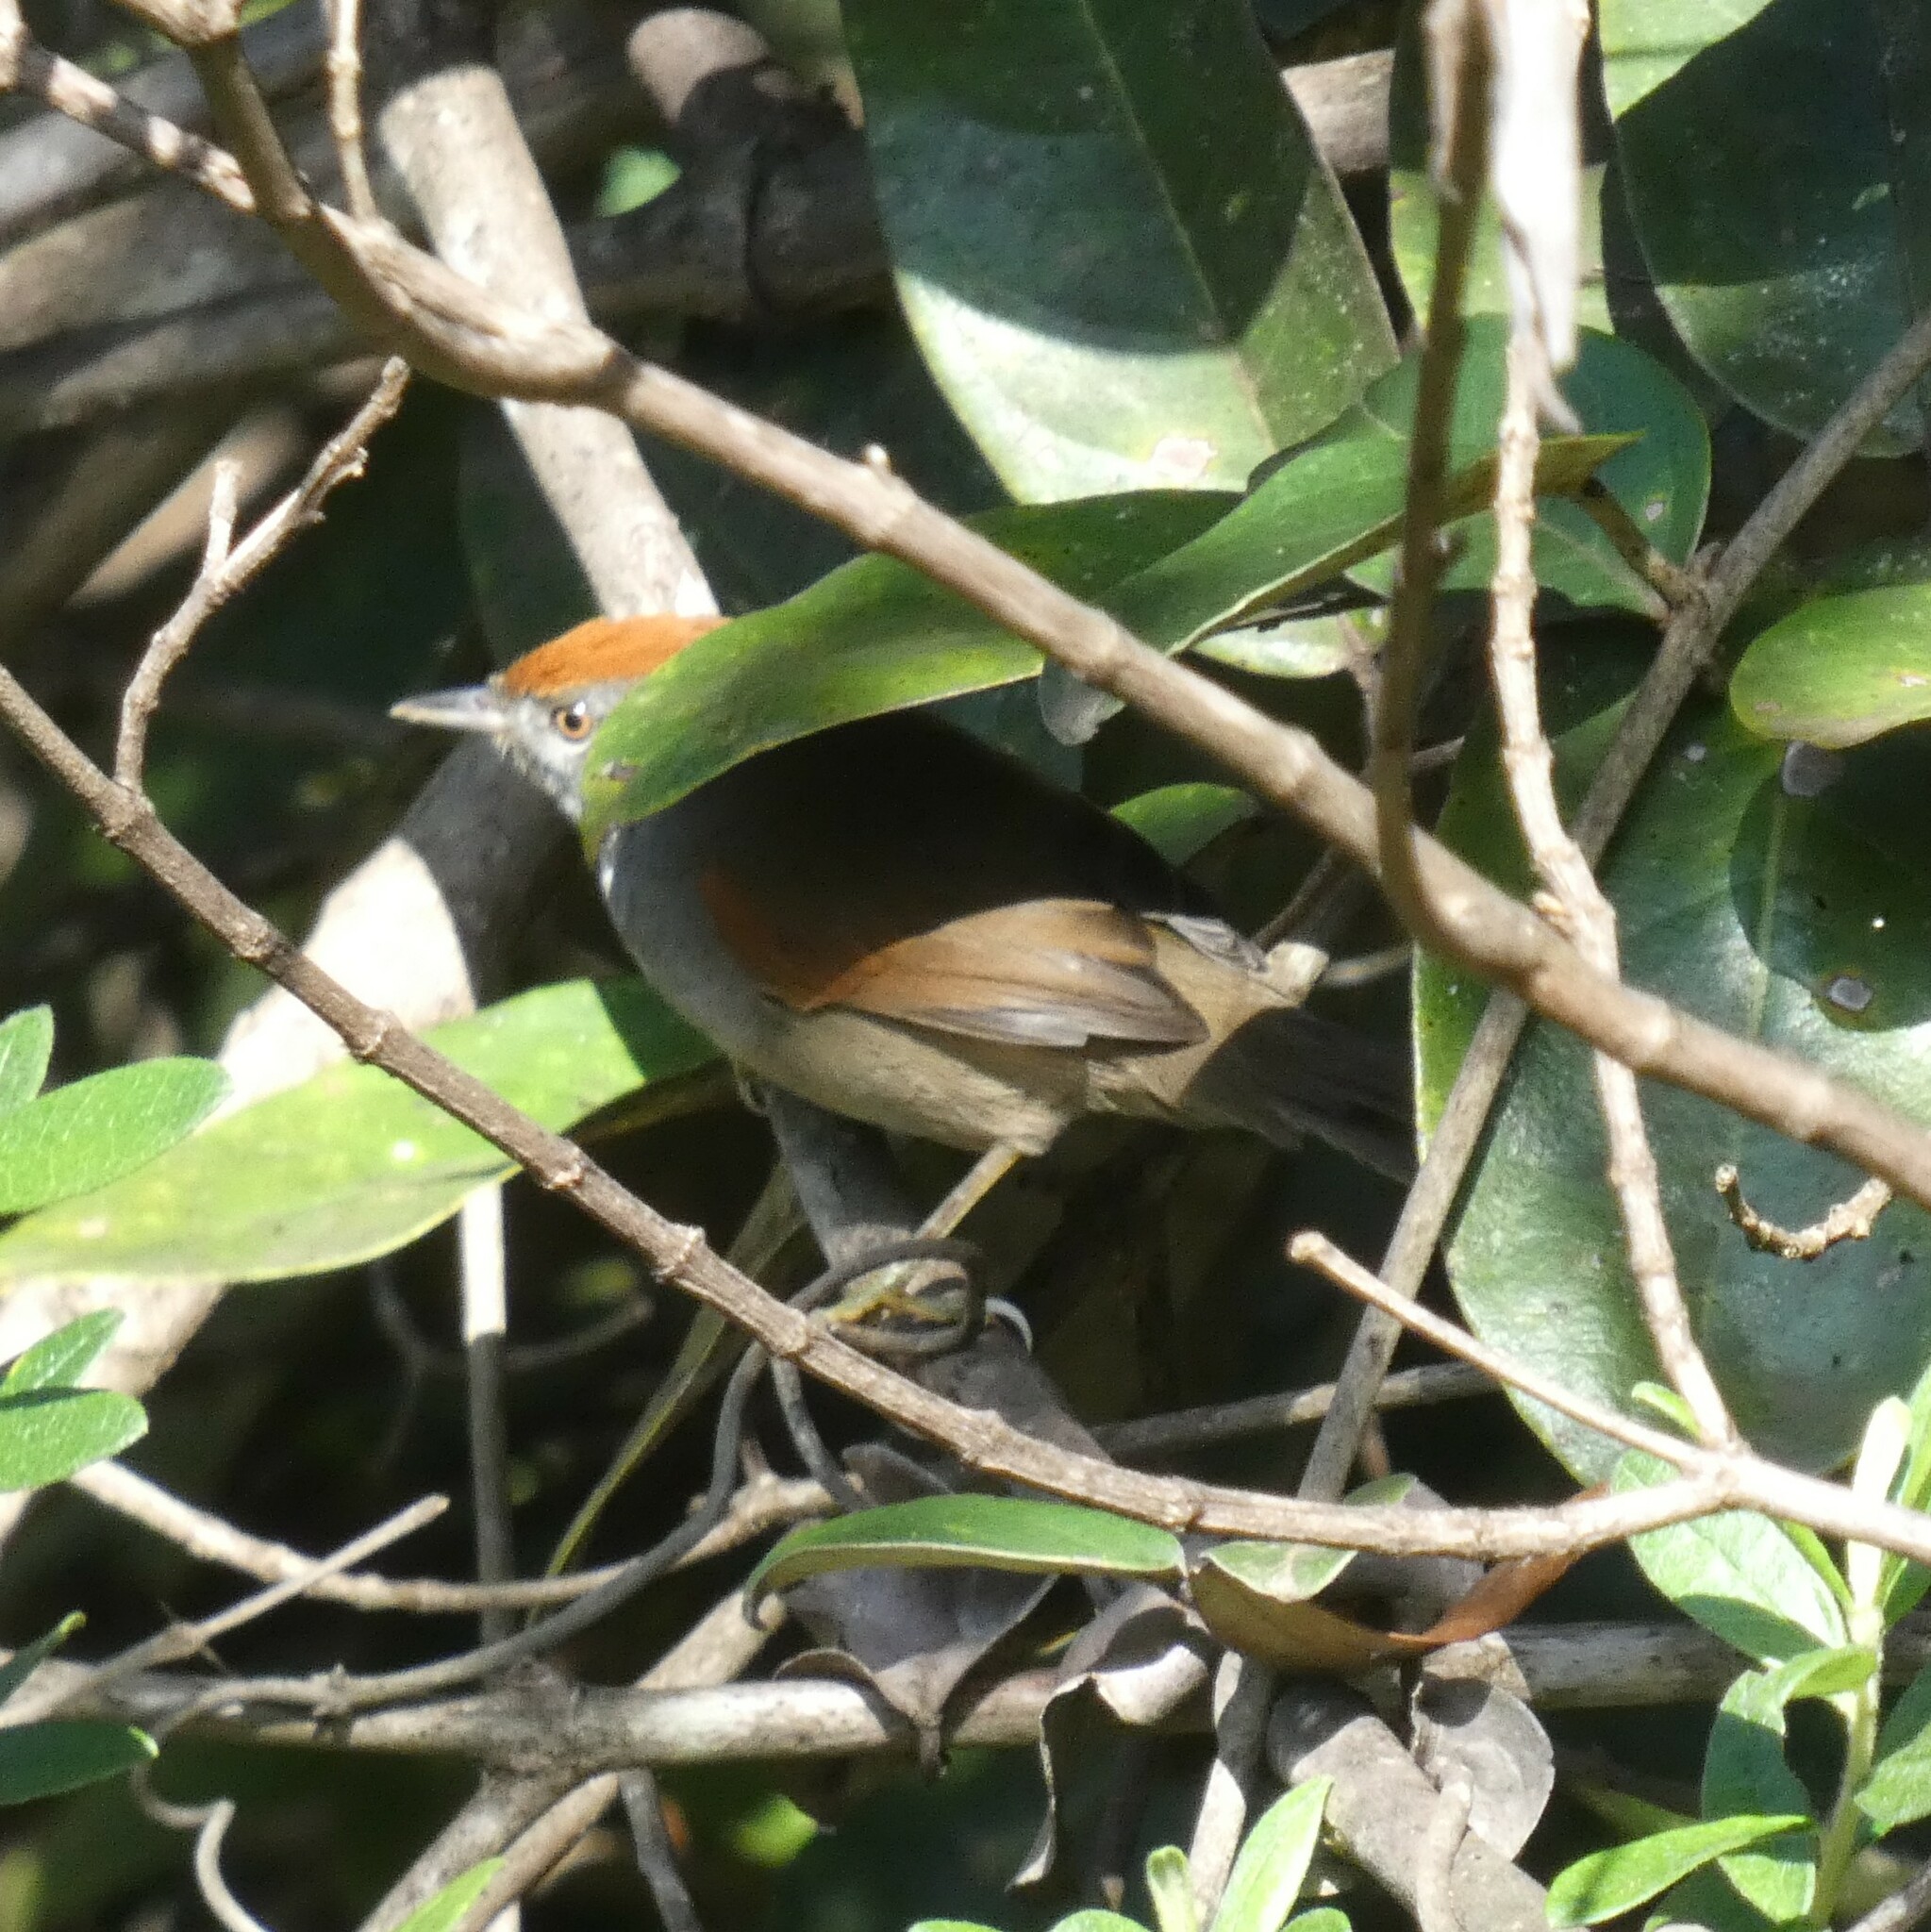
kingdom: Animalia
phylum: Chordata
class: Aves
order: Passeriformes
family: Furnariidae
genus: Synallaxis
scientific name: Synallaxis spixi
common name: Spix's spinetail
